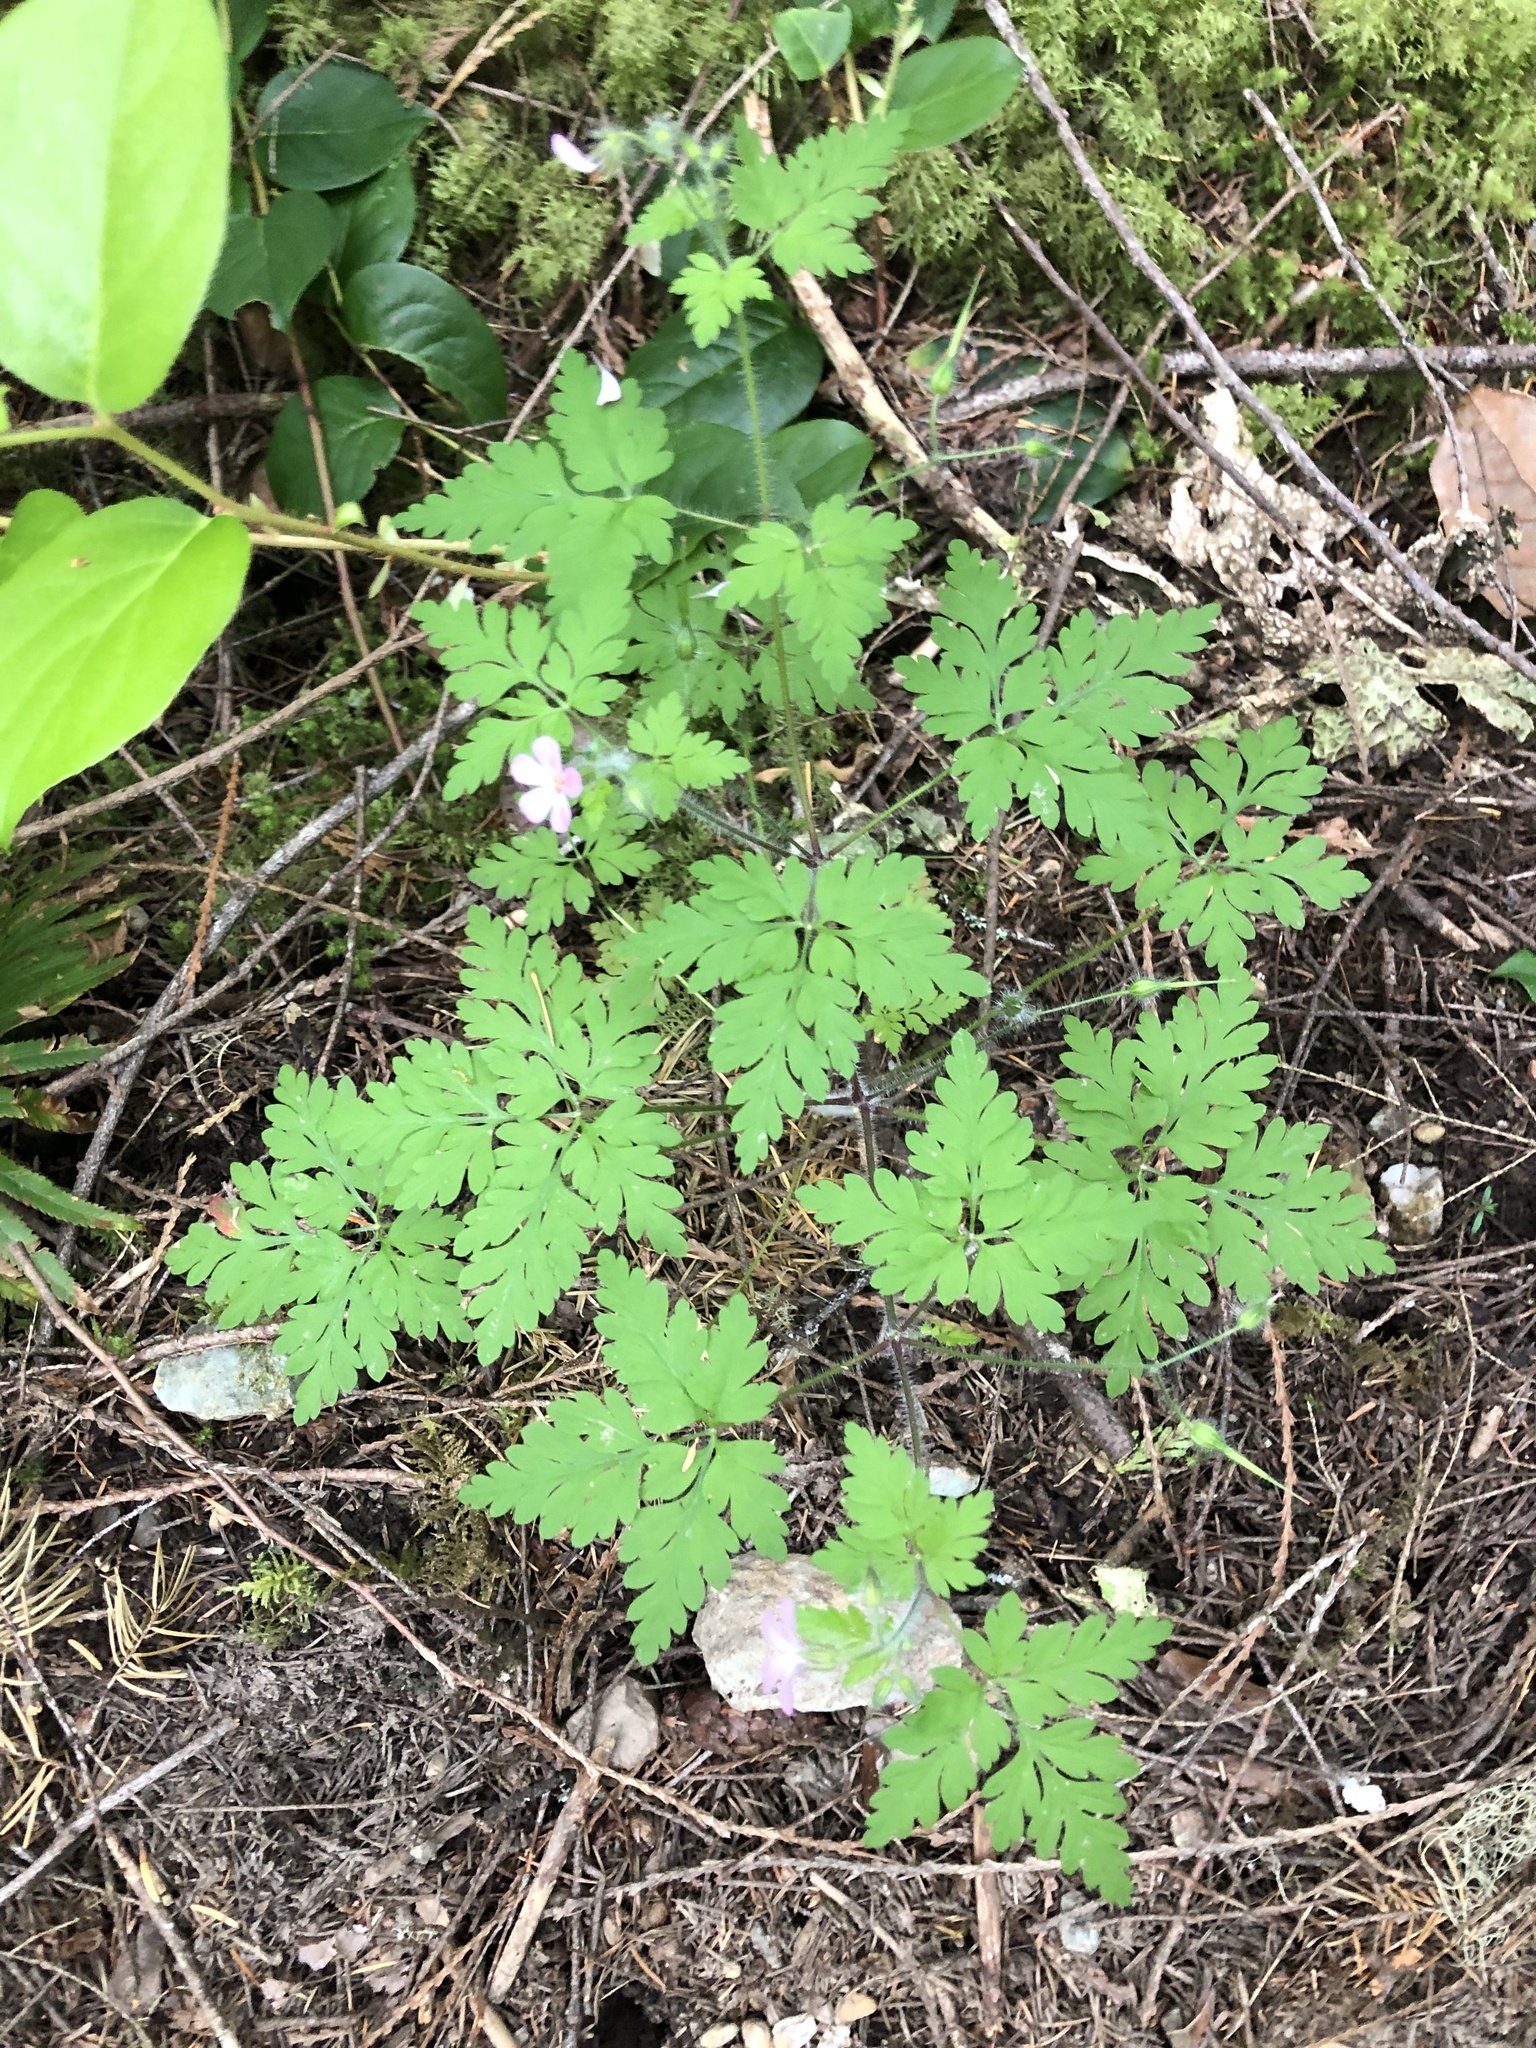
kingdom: Plantae
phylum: Tracheophyta
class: Magnoliopsida
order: Geraniales
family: Geraniaceae
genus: Geranium
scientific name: Geranium robertianum
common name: Herb-robert
